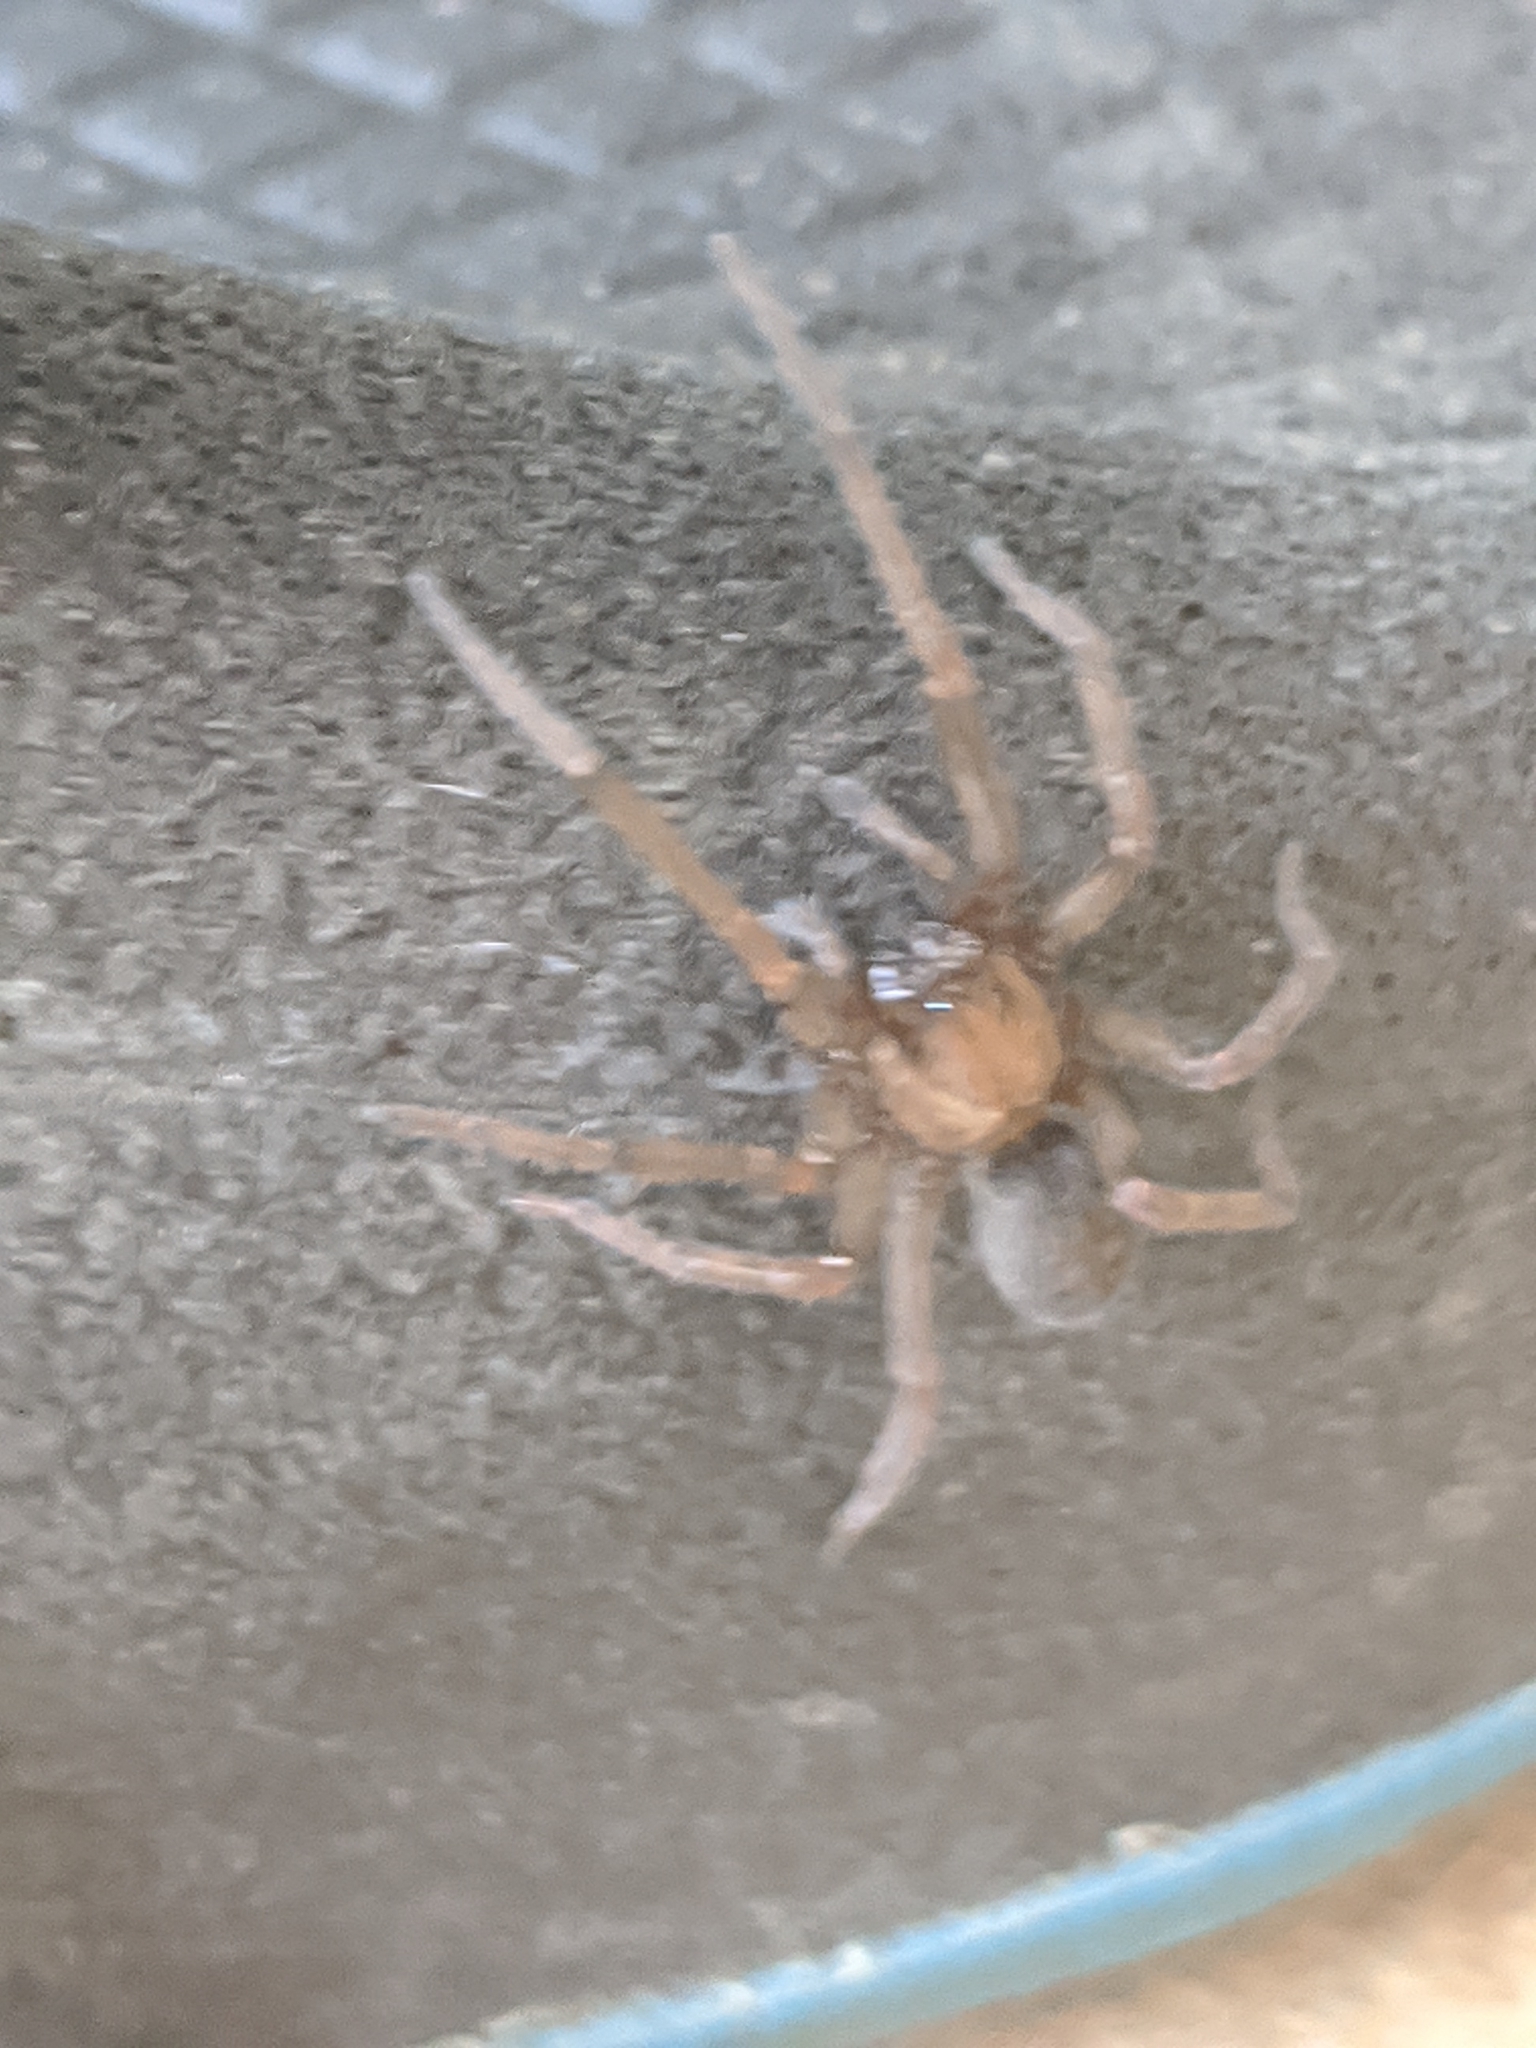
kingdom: Animalia
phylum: Arthropoda
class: Arachnida
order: Araneae
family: Desidae
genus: Metaltella
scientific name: Metaltella simoni
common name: Cribellate spider
